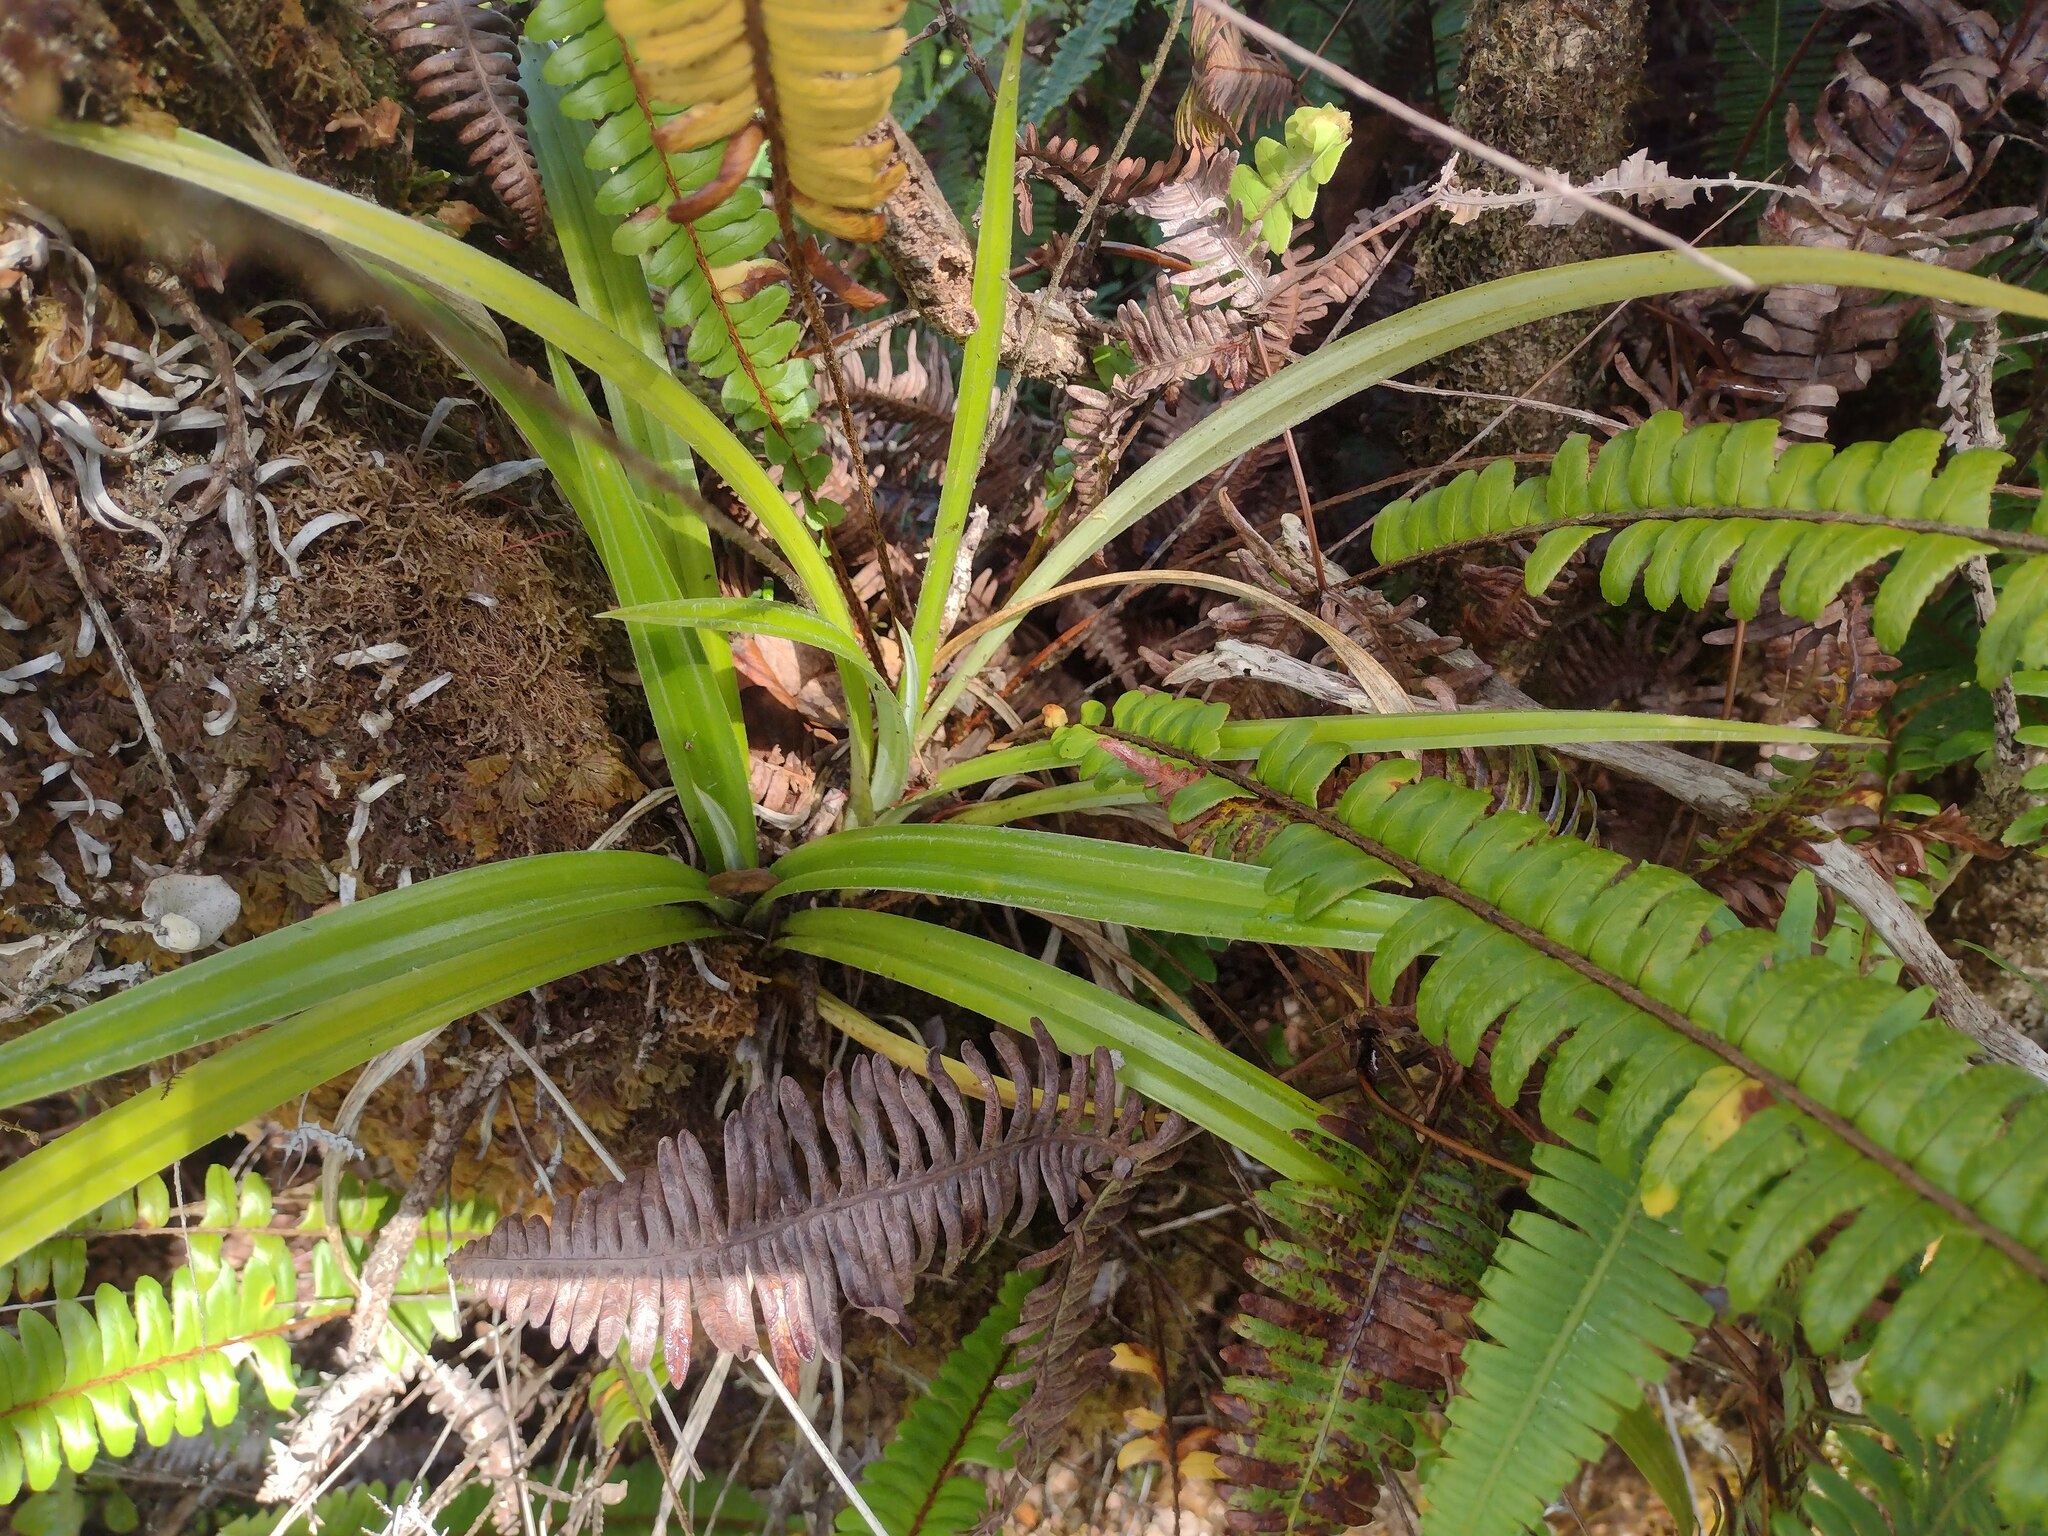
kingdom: Plantae
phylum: Tracheophyta
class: Liliopsida
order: Asparagales
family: Asteliaceae
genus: Astelia
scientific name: Astelia menziesiana
